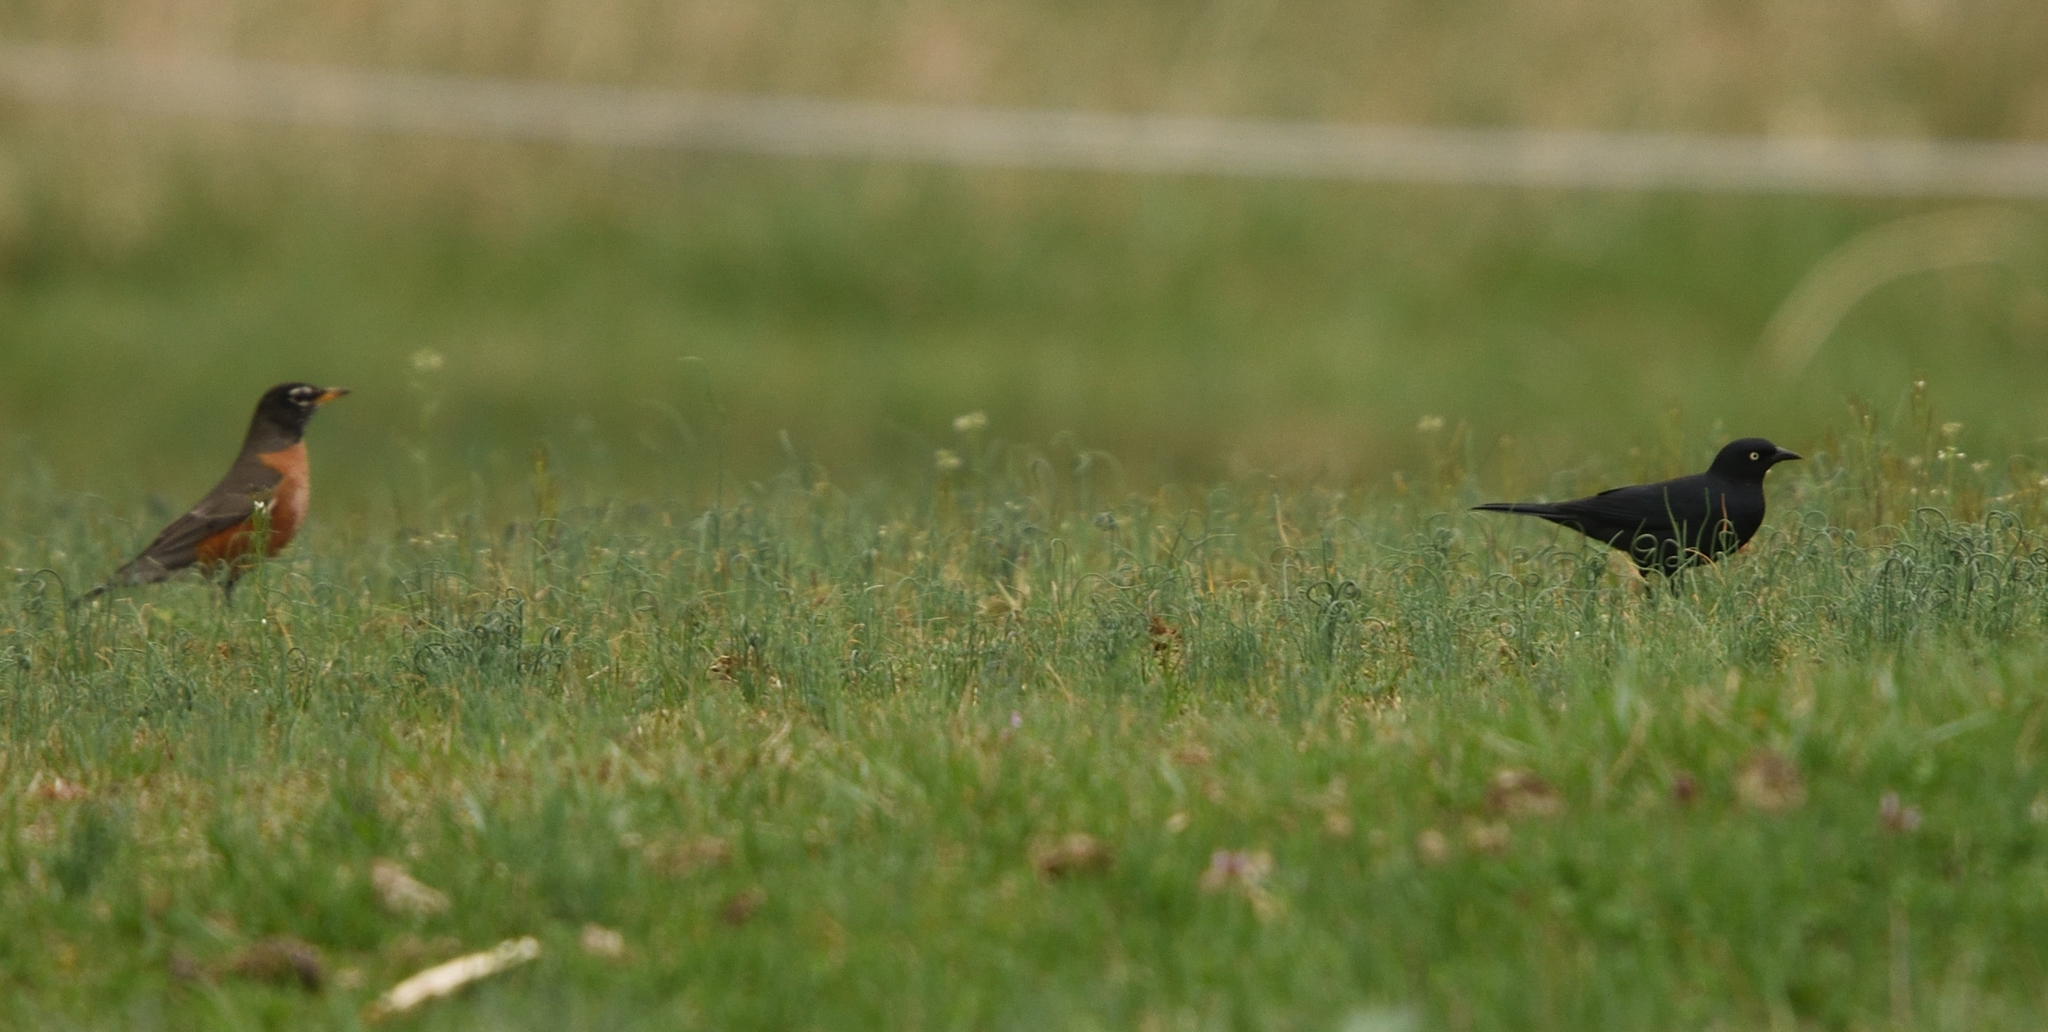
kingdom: Animalia
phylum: Chordata
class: Aves
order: Passeriformes
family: Icteridae
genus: Euphagus
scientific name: Euphagus carolinus
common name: Rusty blackbird
